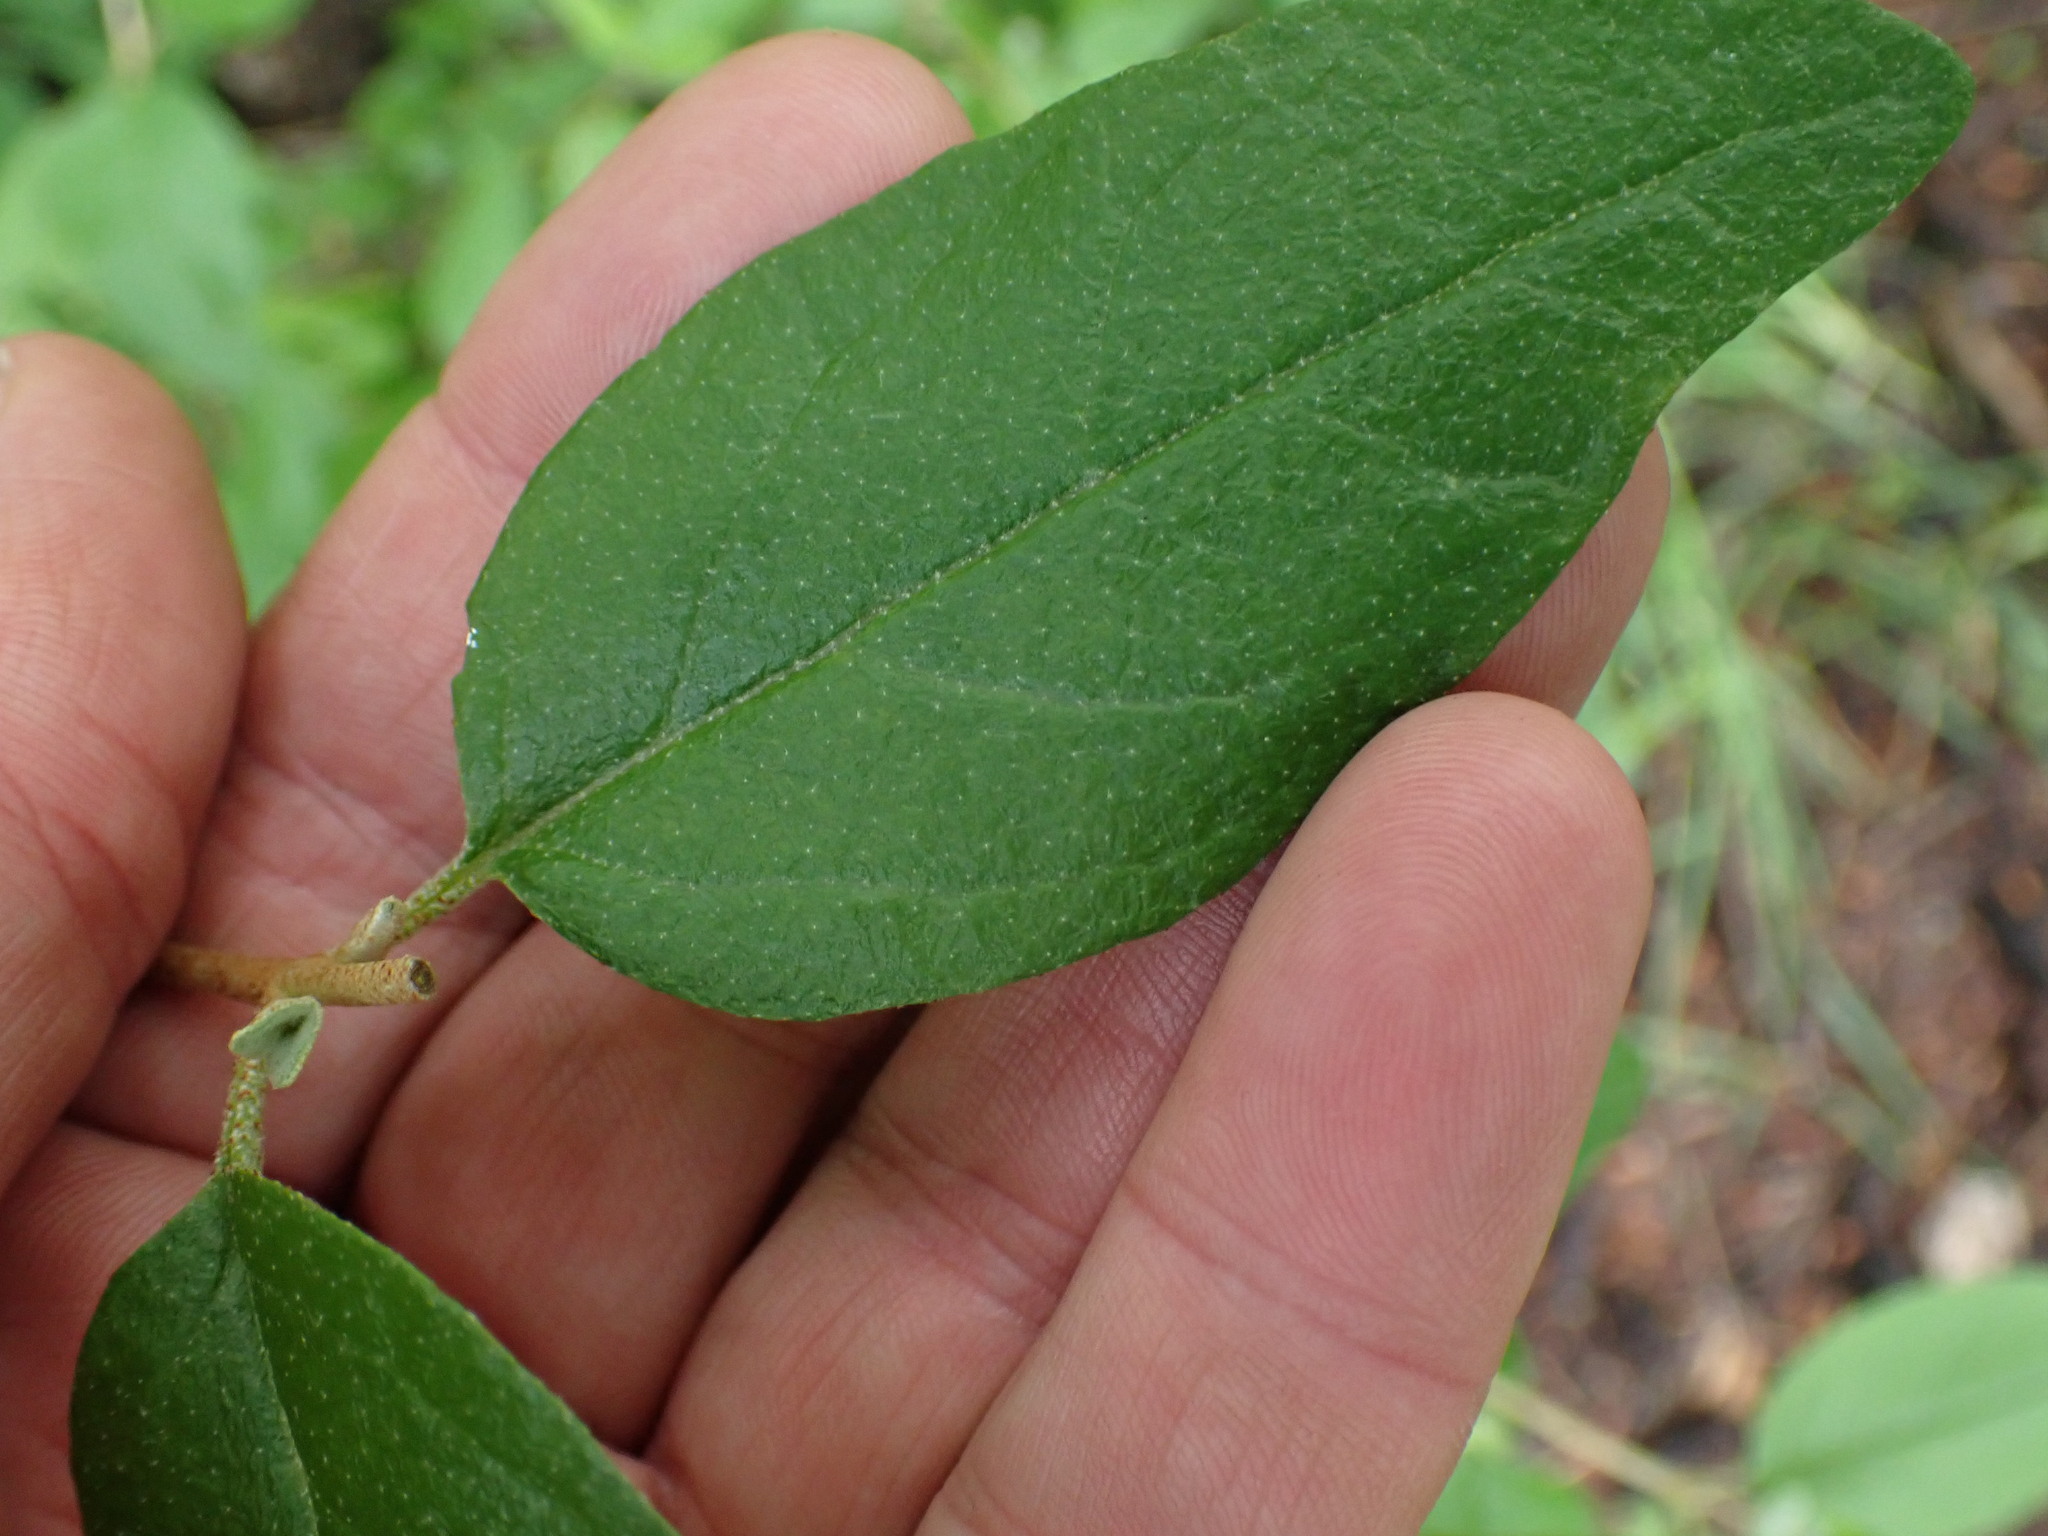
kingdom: Plantae
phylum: Tracheophyta
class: Magnoliopsida
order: Rosales
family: Elaeagnaceae
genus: Shepherdia
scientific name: Shepherdia canadensis
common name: Soapberry
